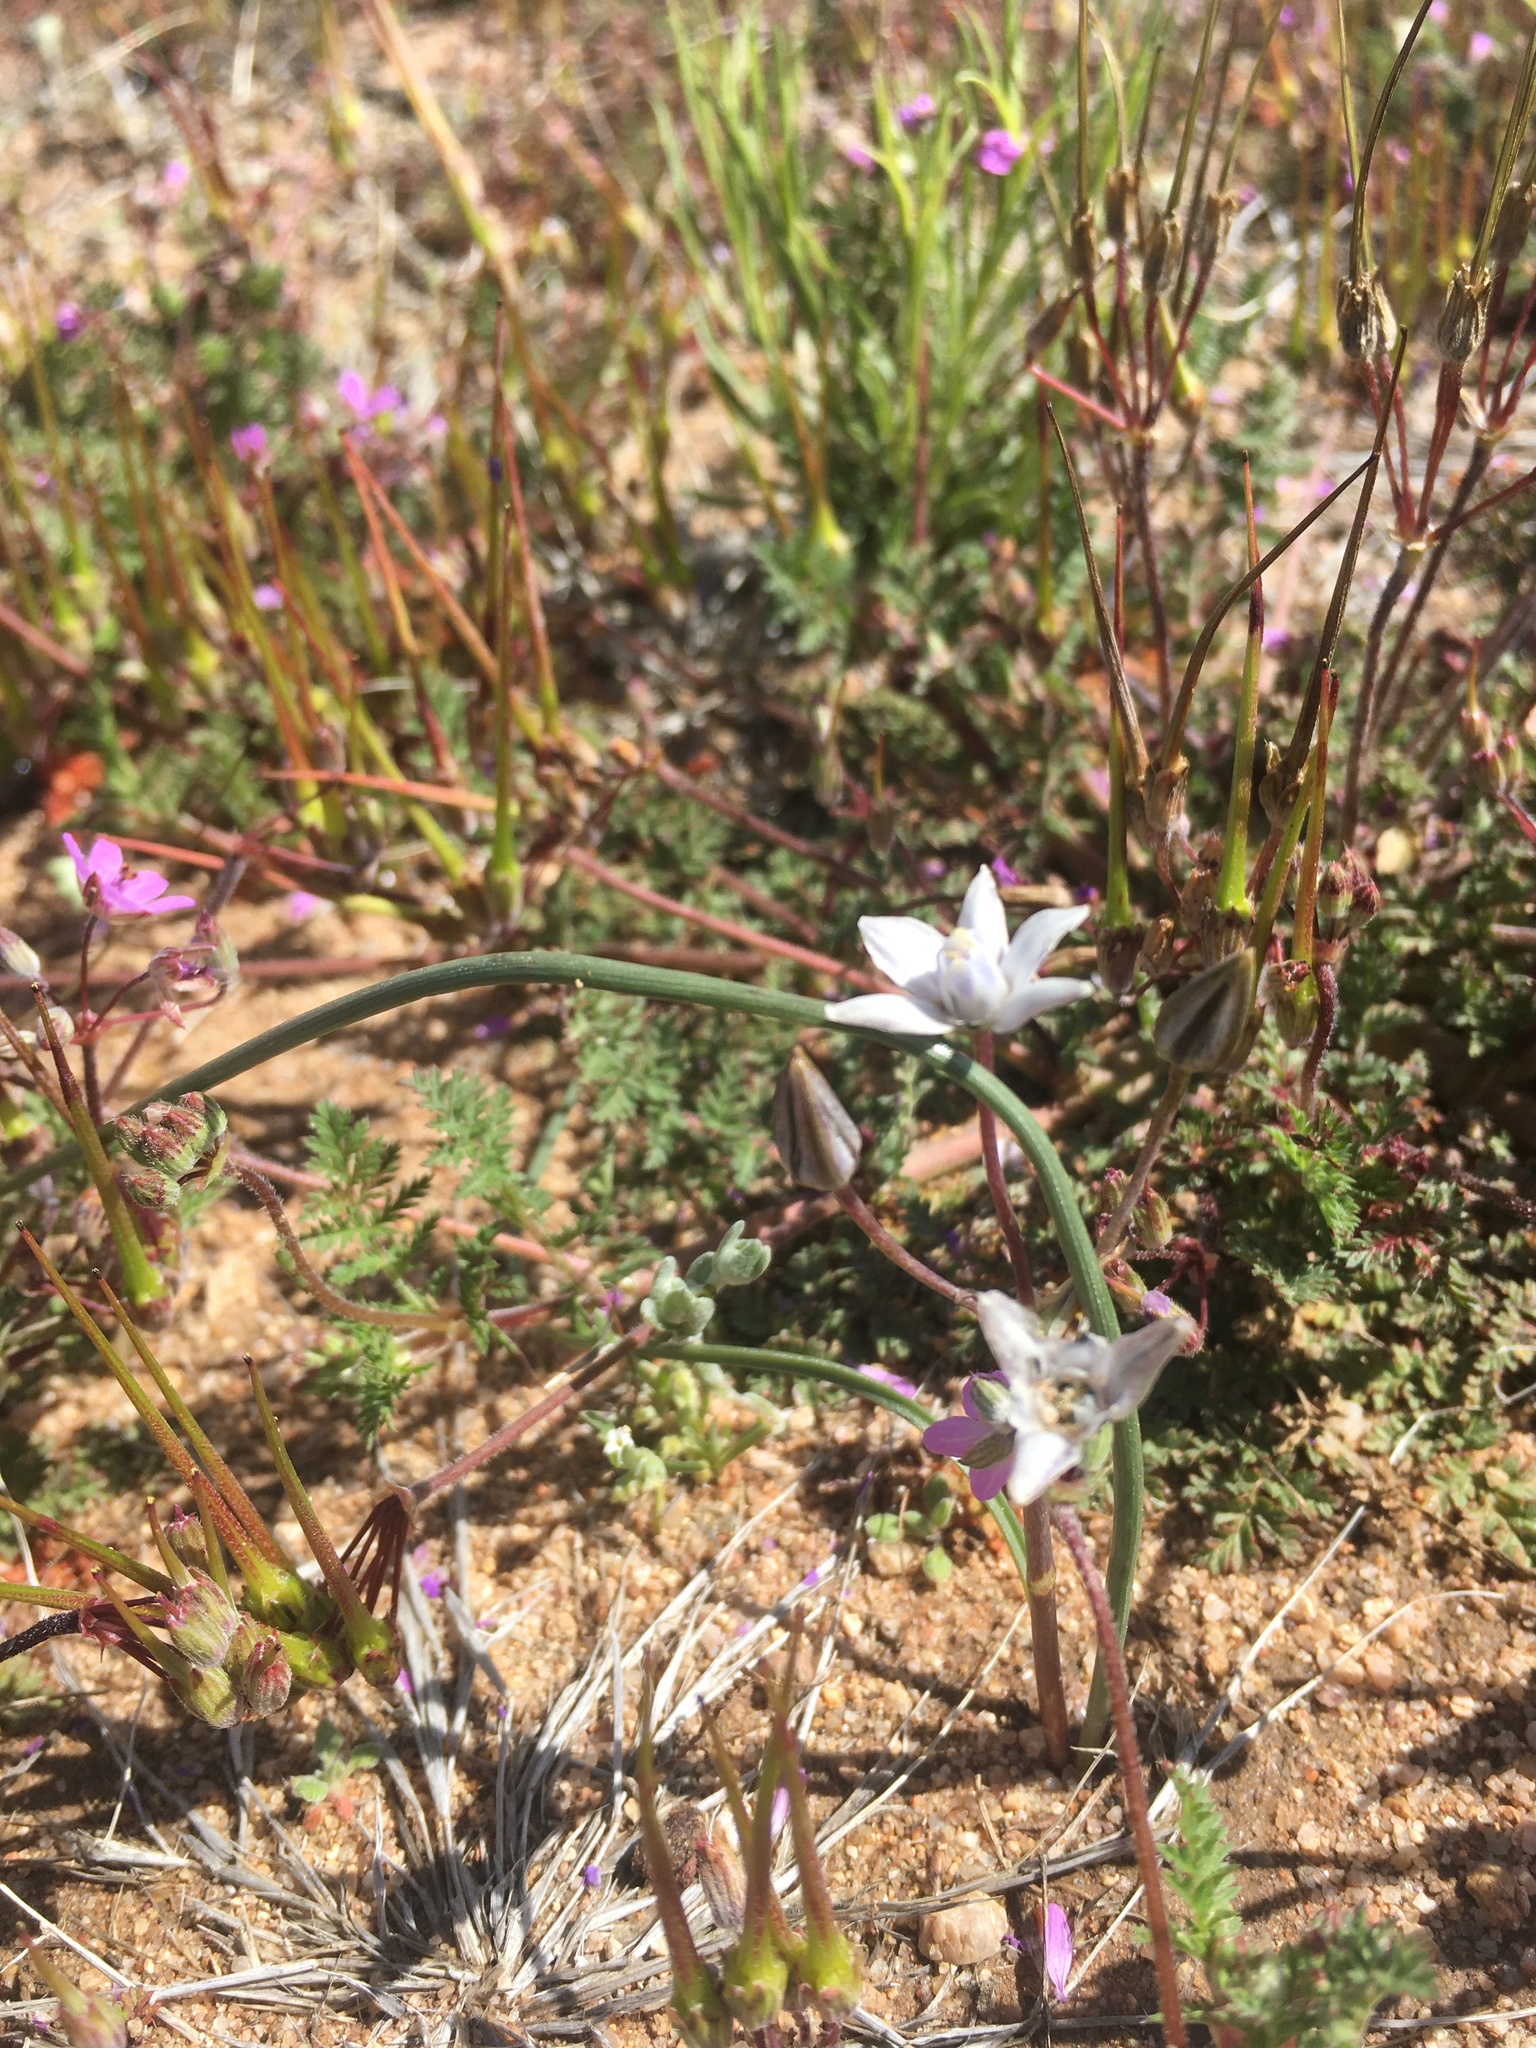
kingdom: Plantae
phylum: Tracheophyta
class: Liliopsida
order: Asparagales
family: Asparagaceae
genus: Muilla
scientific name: Muilla lordsburgana
